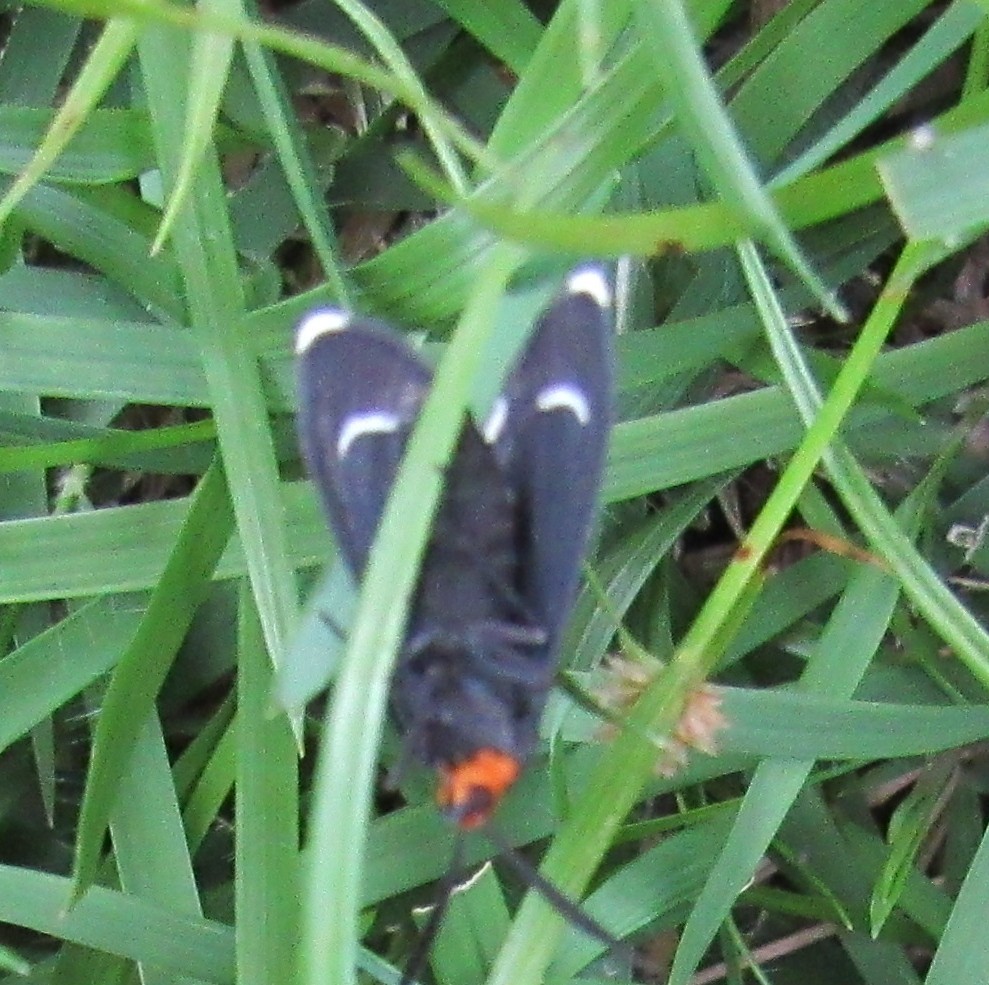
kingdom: Animalia
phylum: Arthropoda
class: Insecta
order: Lepidoptera
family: Erebidae
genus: Ctenucha
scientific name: Ctenucha rubriceps
